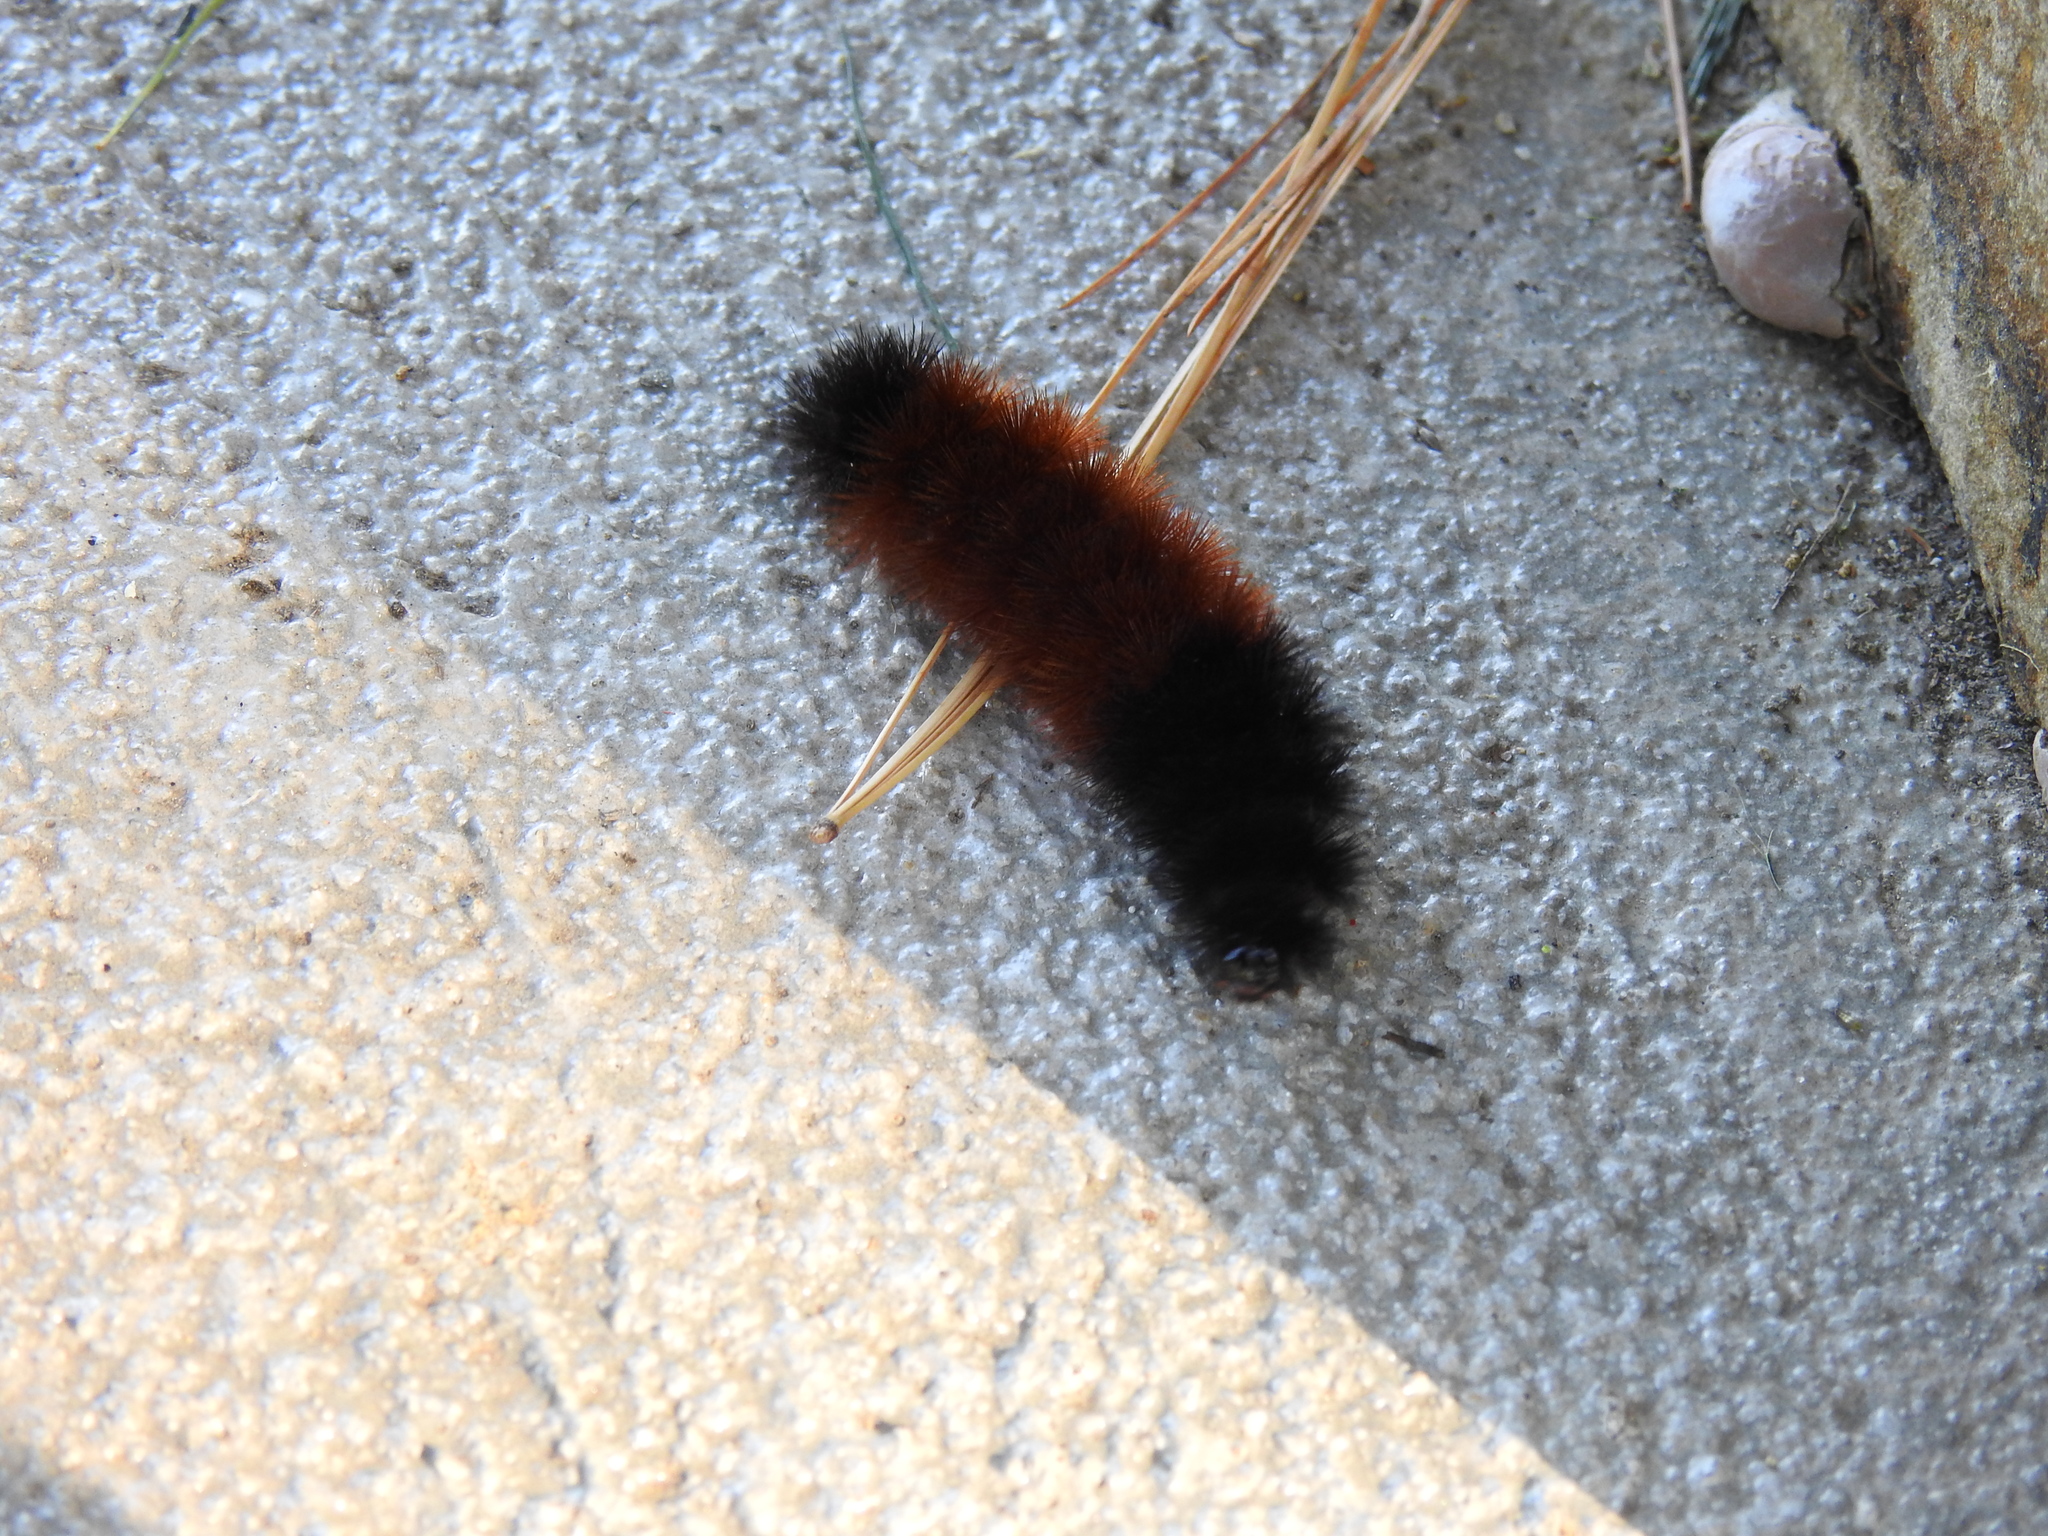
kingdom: Animalia
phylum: Arthropoda
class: Insecta
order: Lepidoptera
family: Erebidae
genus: Pyrrharctia
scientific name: Pyrrharctia isabella
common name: Isabella tiger moth
